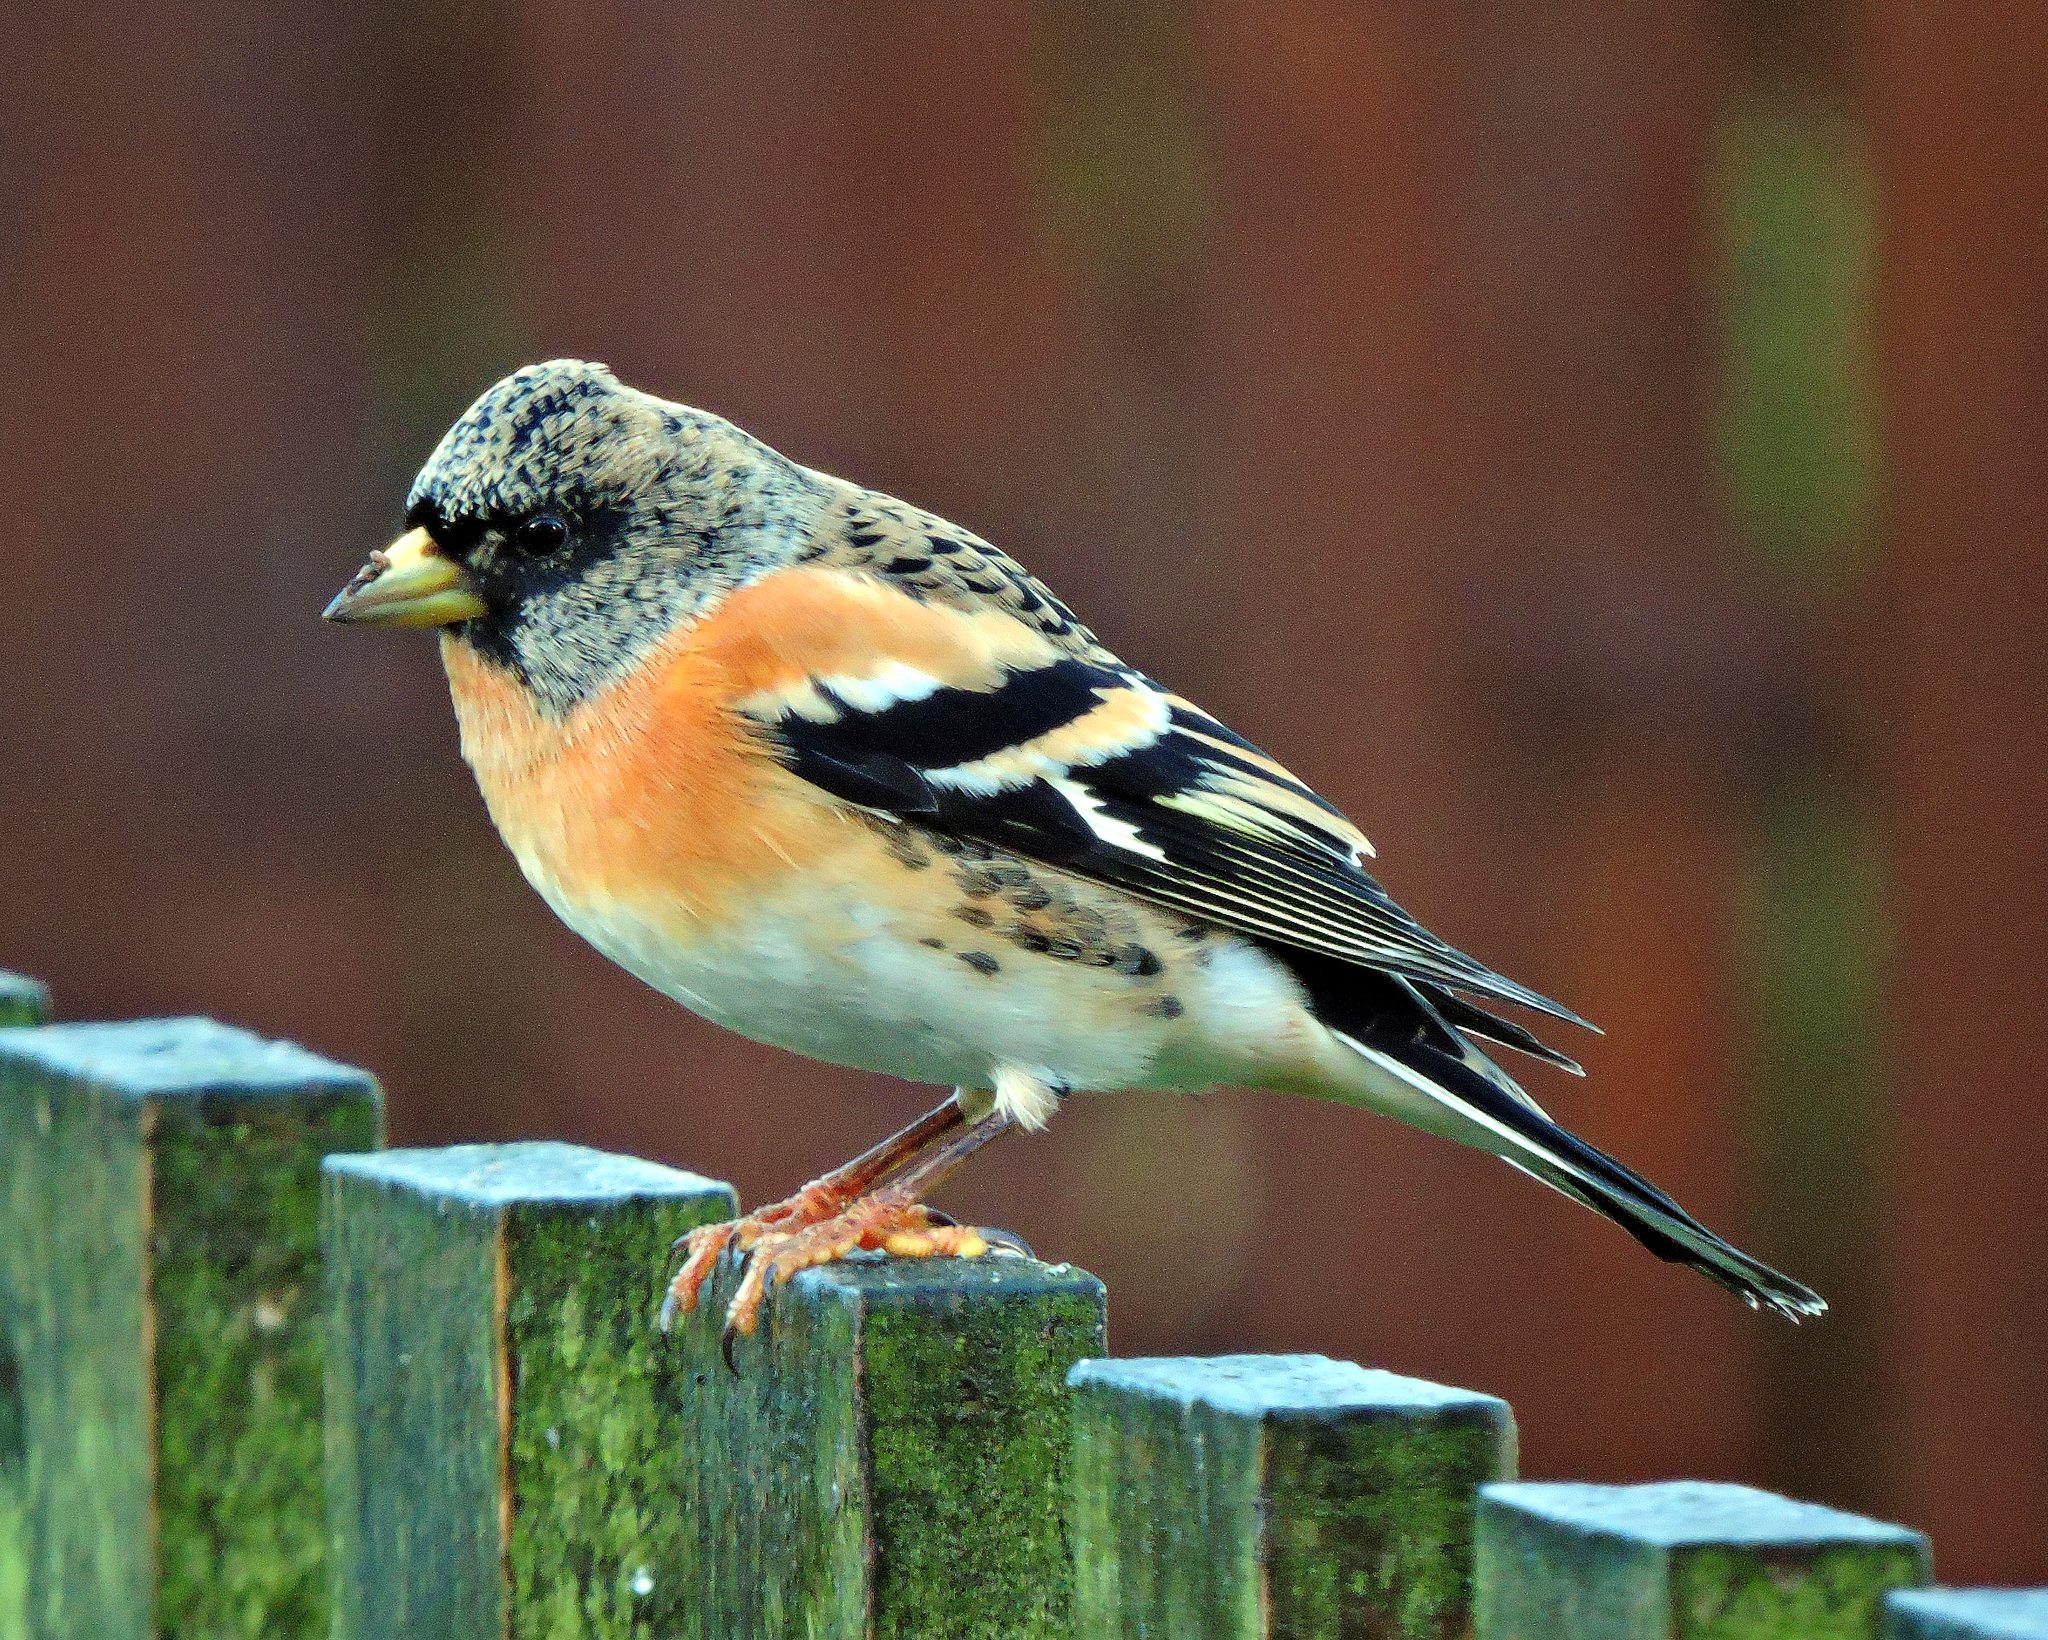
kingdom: Animalia
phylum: Chordata
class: Aves
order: Passeriformes
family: Fringillidae
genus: Fringilla
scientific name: Fringilla montifringilla
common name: Brambling
